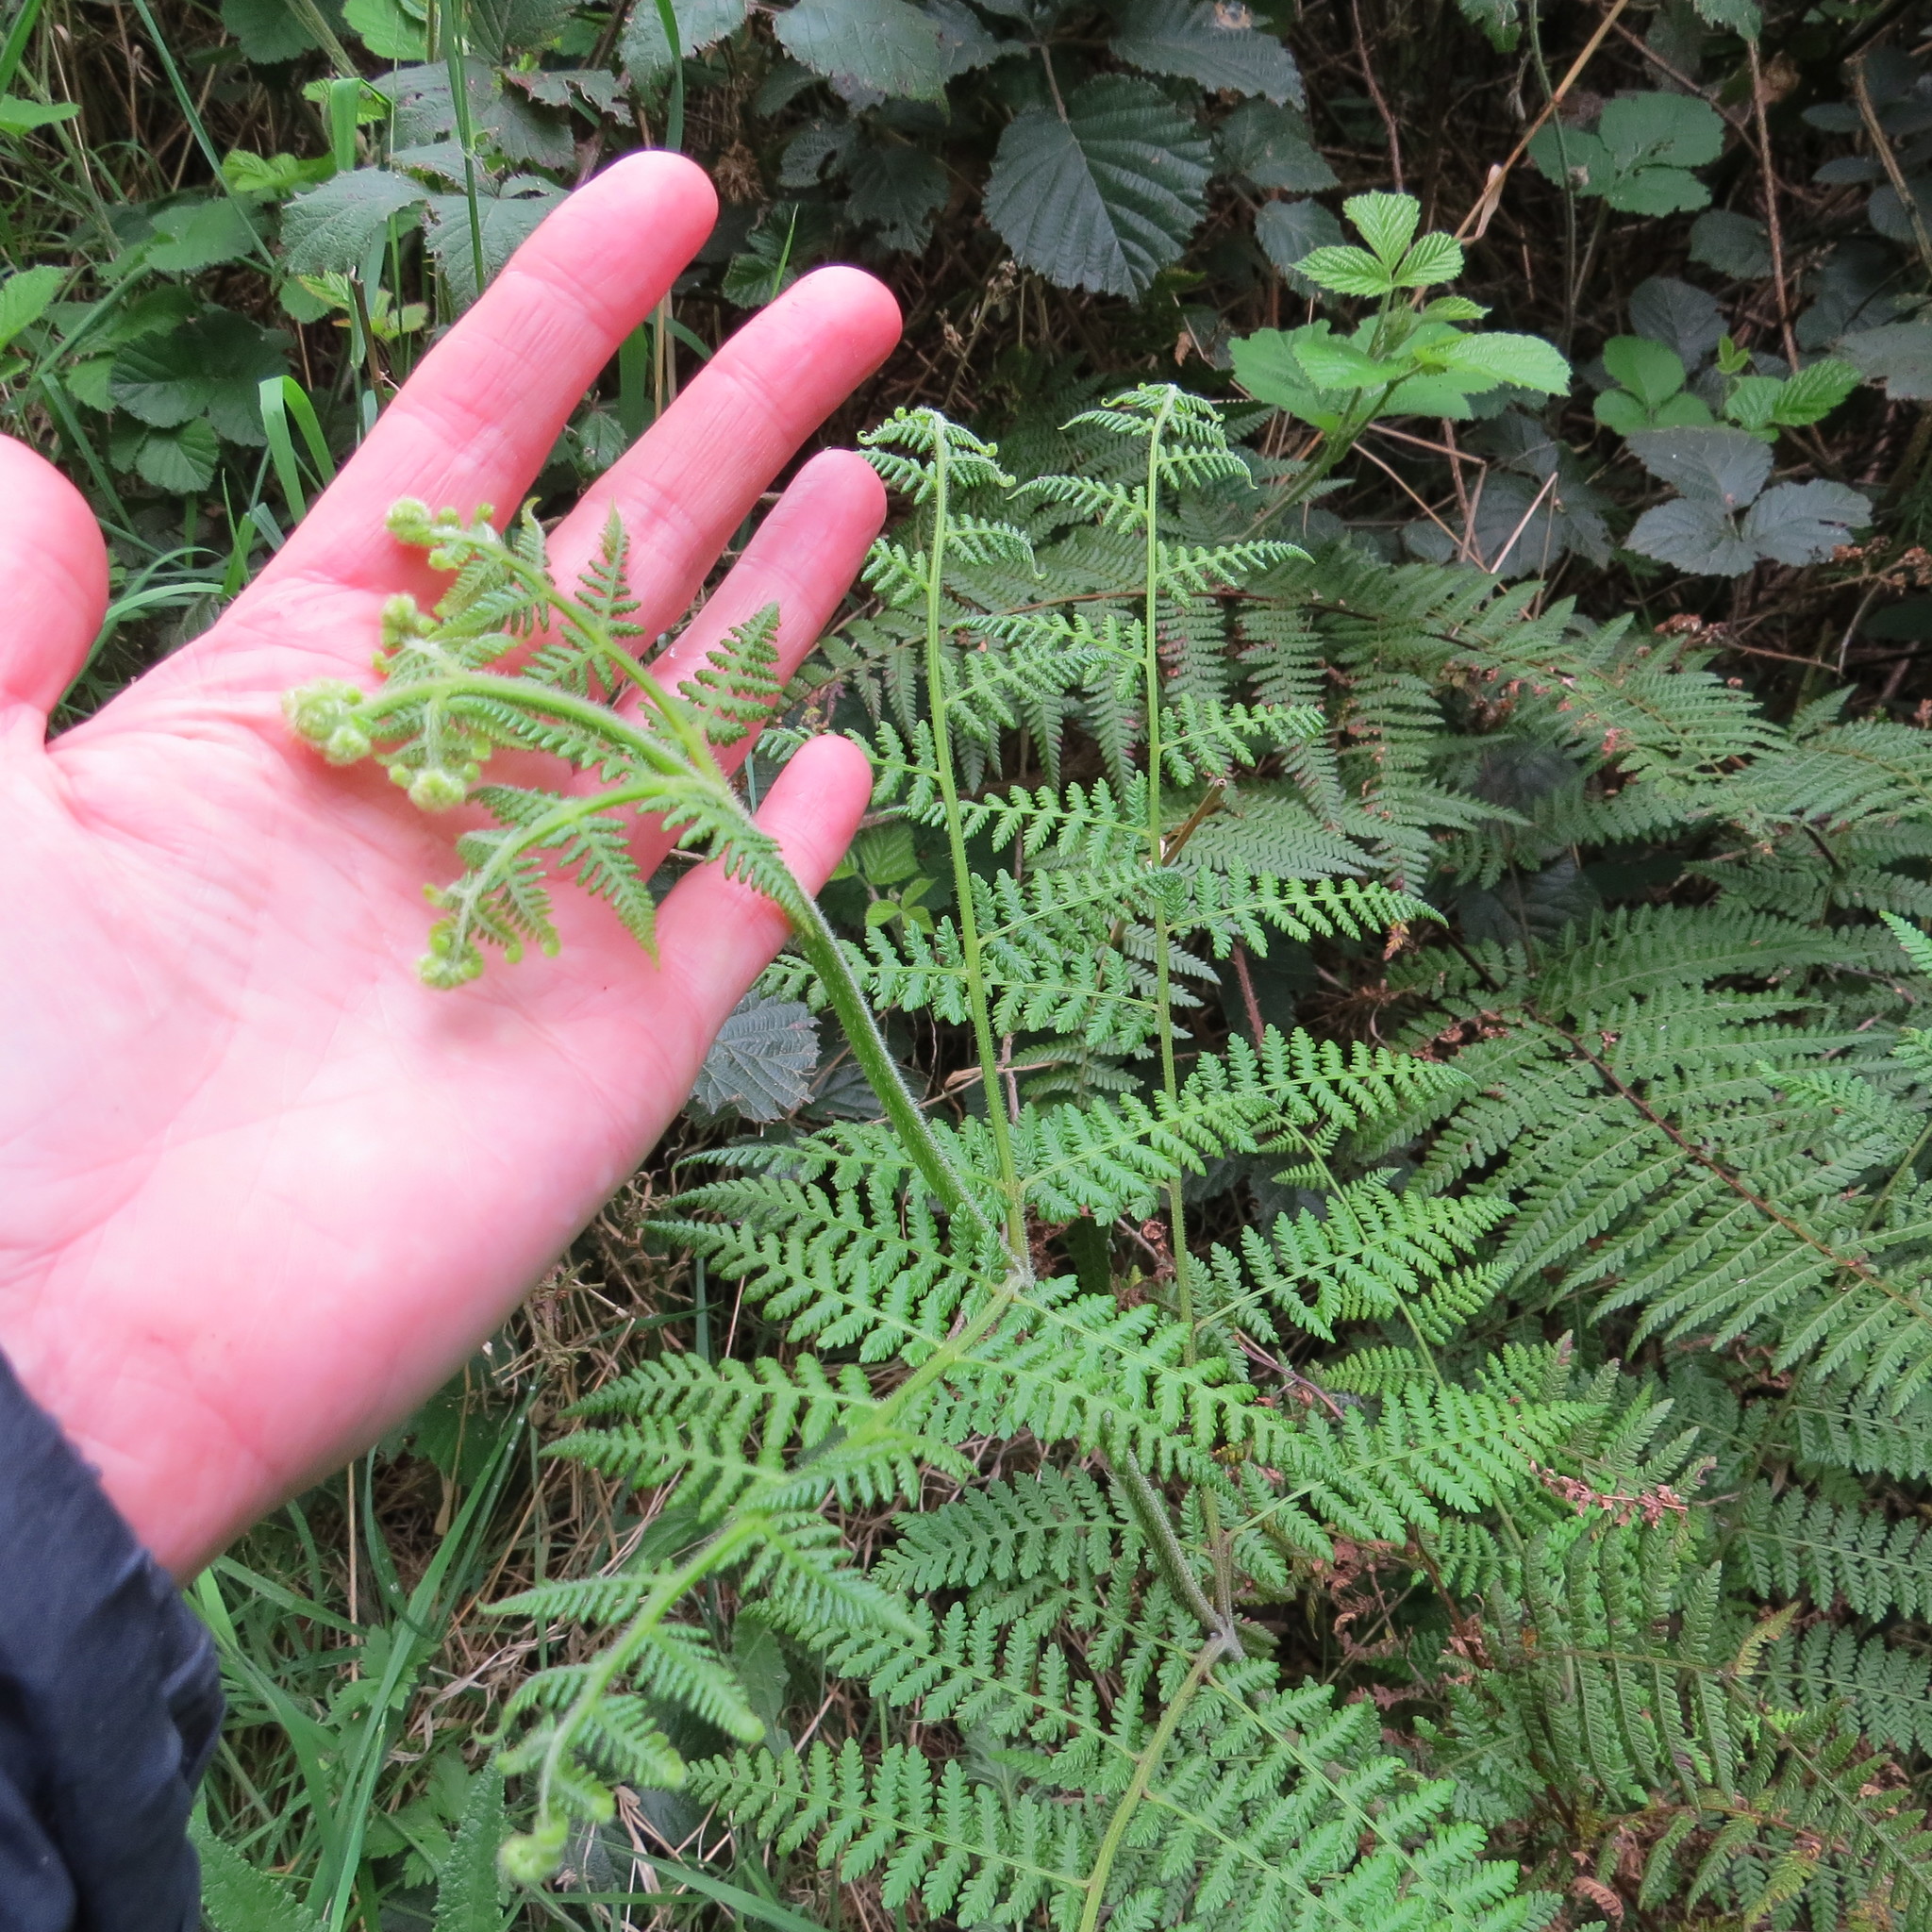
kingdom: Plantae
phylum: Tracheophyta
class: Polypodiopsida
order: Polypodiales
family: Dennstaedtiaceae
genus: Hypolepis
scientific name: Hypolepis ambigua
